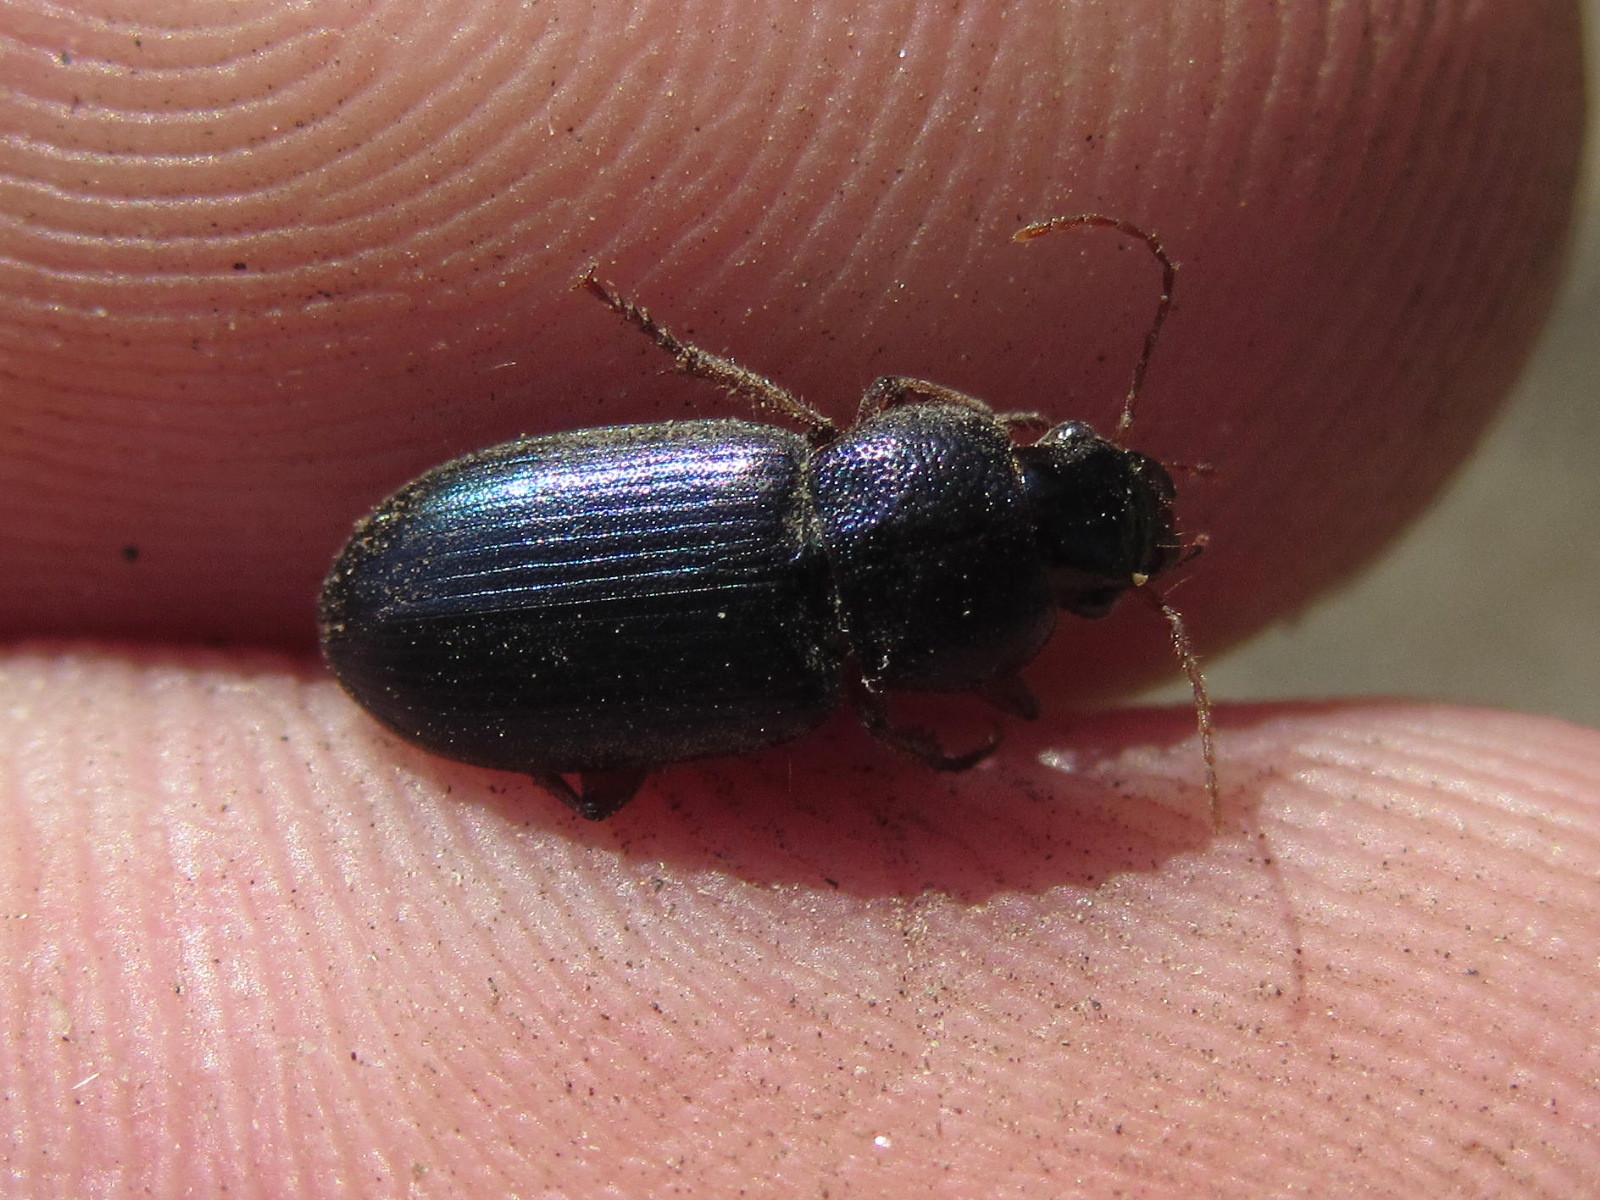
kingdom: Animalia
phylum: Arthropoda
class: Insecta
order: Coleoptera
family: Carabidae
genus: Ophonus
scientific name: Ophonus azureus
